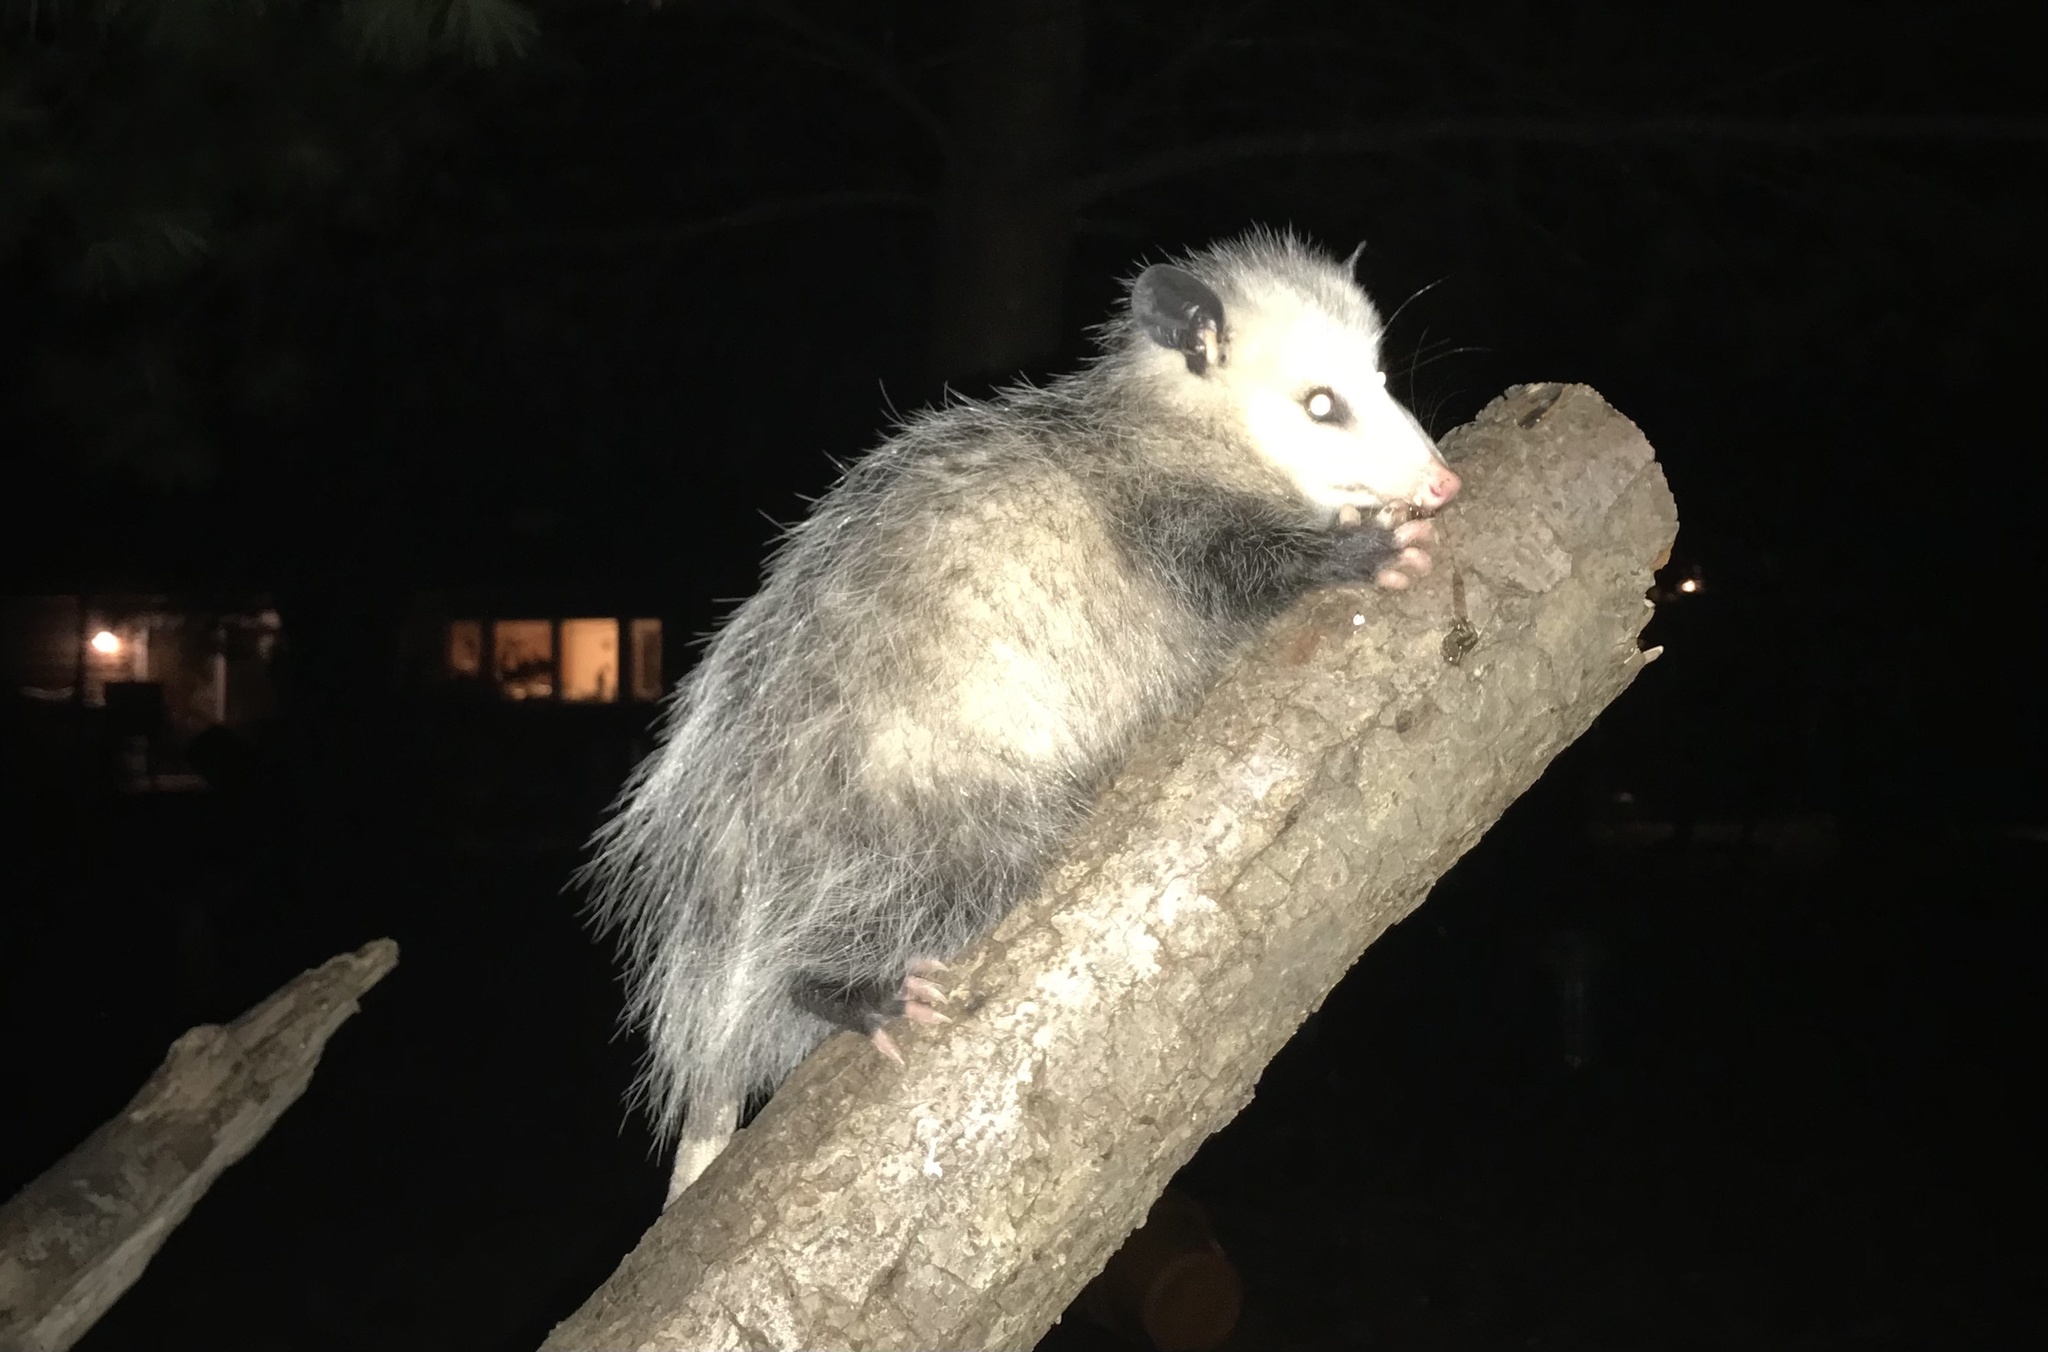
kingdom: Animalia
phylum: Chordata
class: Mammalia
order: Didelphimorphia
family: Didelphidae
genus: Didelphis
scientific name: Didelphis virginiana
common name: Virginia opossum
